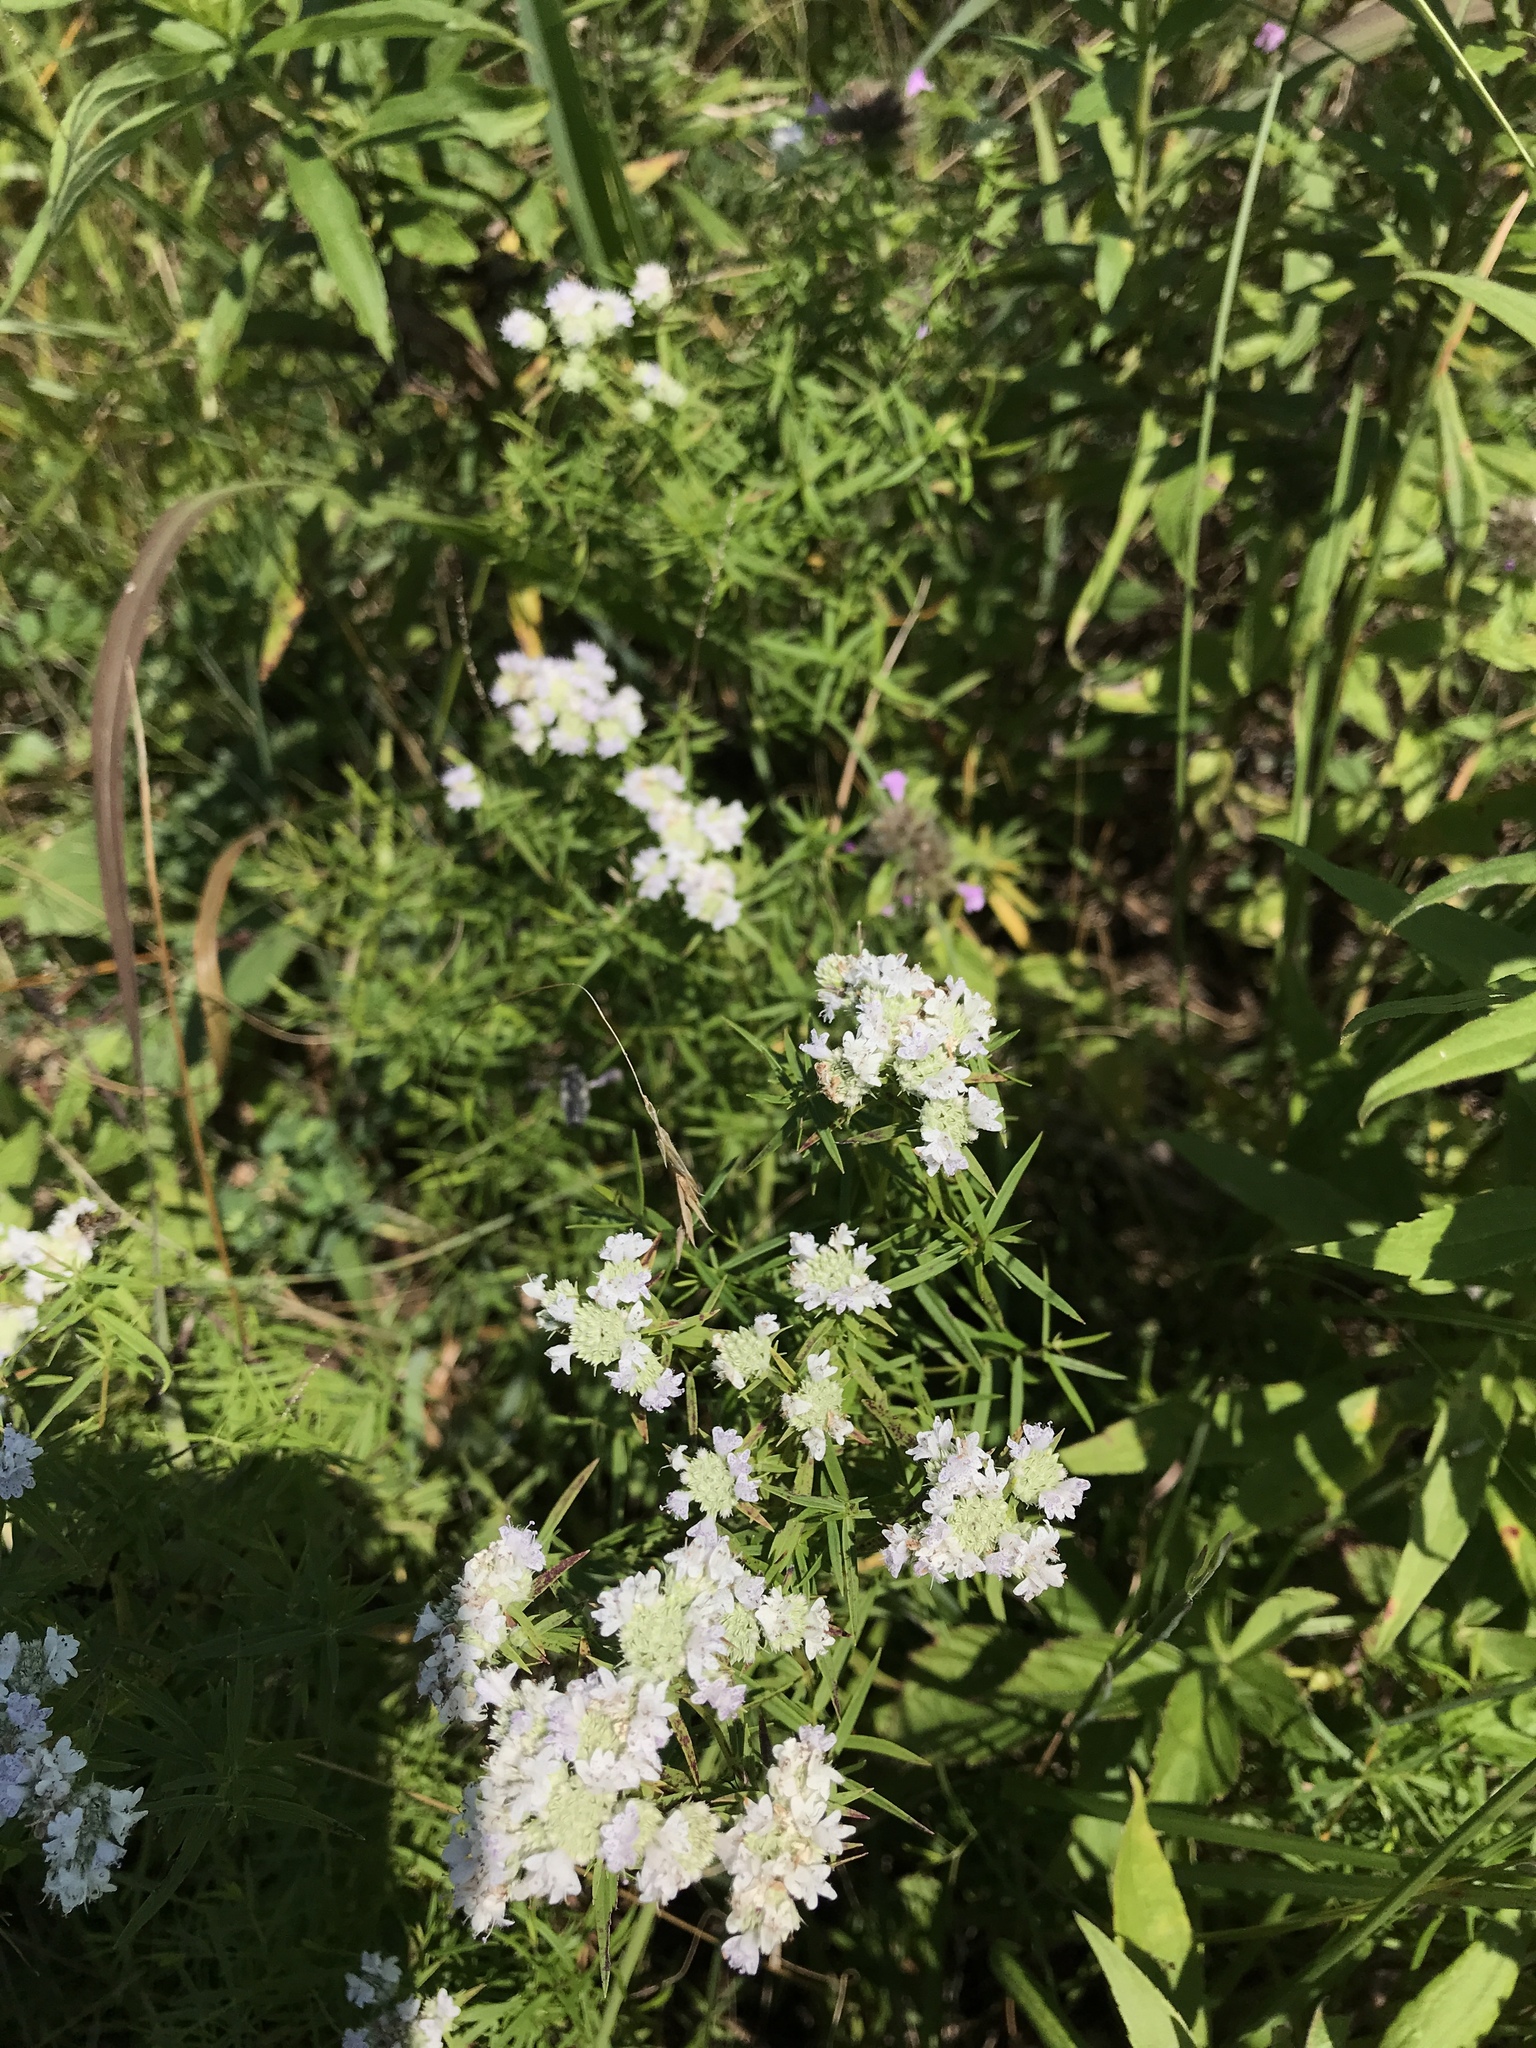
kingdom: Plantae
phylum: Tracheophyta
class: Magnoliopsida
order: Lamiales
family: Lamiaceae
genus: Pycnanthemum
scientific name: Pycnanthemum tenuifolium
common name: Narrow-leaf mountain-mint
